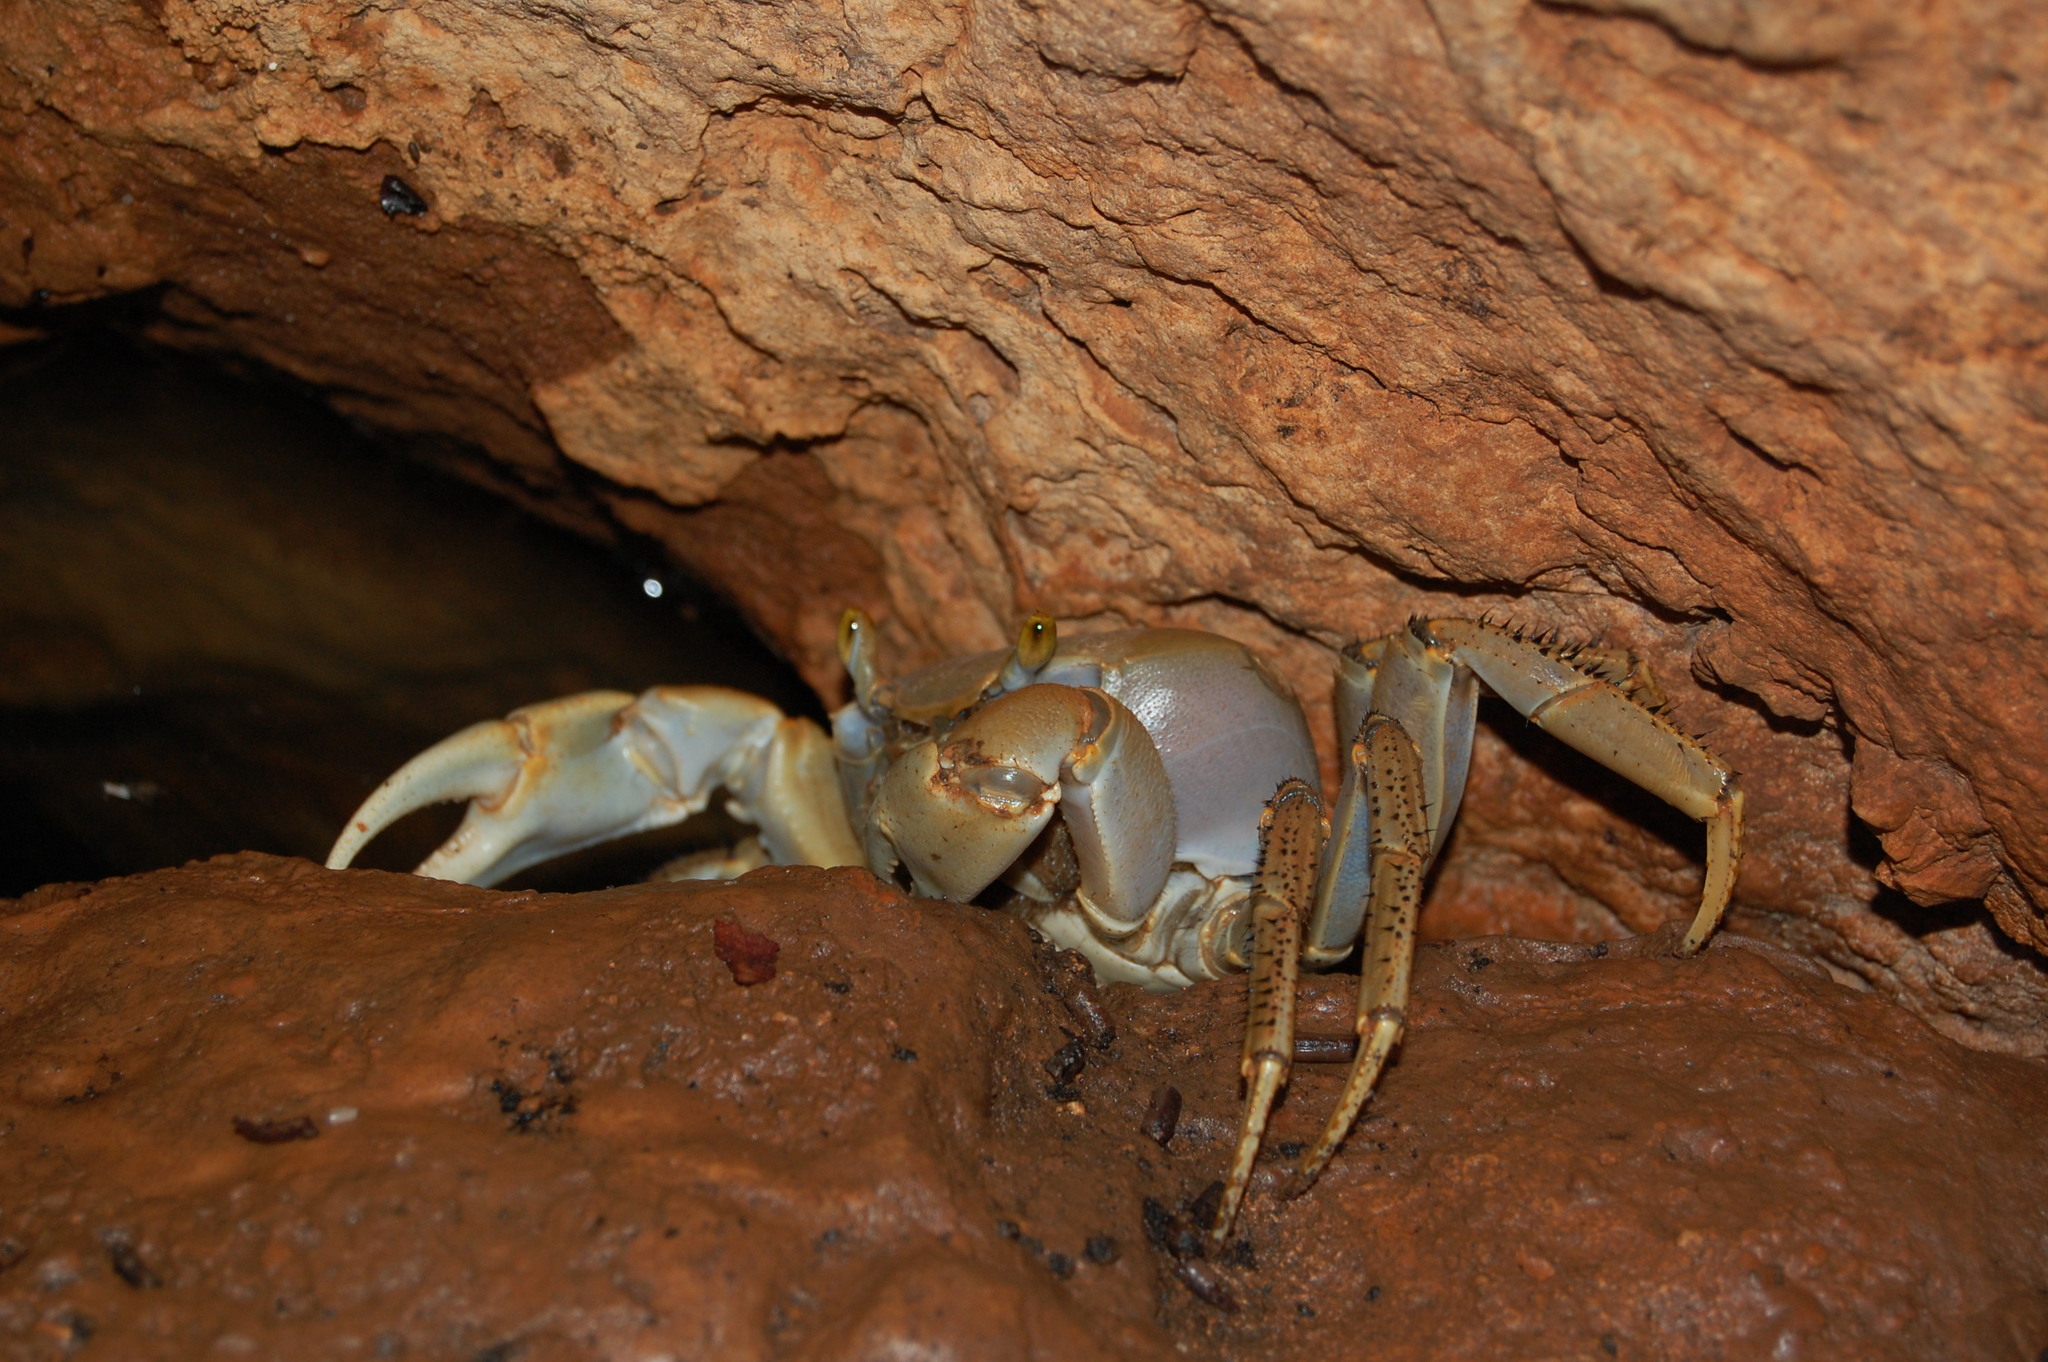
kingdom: Animalia
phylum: Arthropoda
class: Malacostraca
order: Decapoda
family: Gecarcinidae
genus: Cardisoma
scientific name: Cardisoma guanhumi
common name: Great land crab
